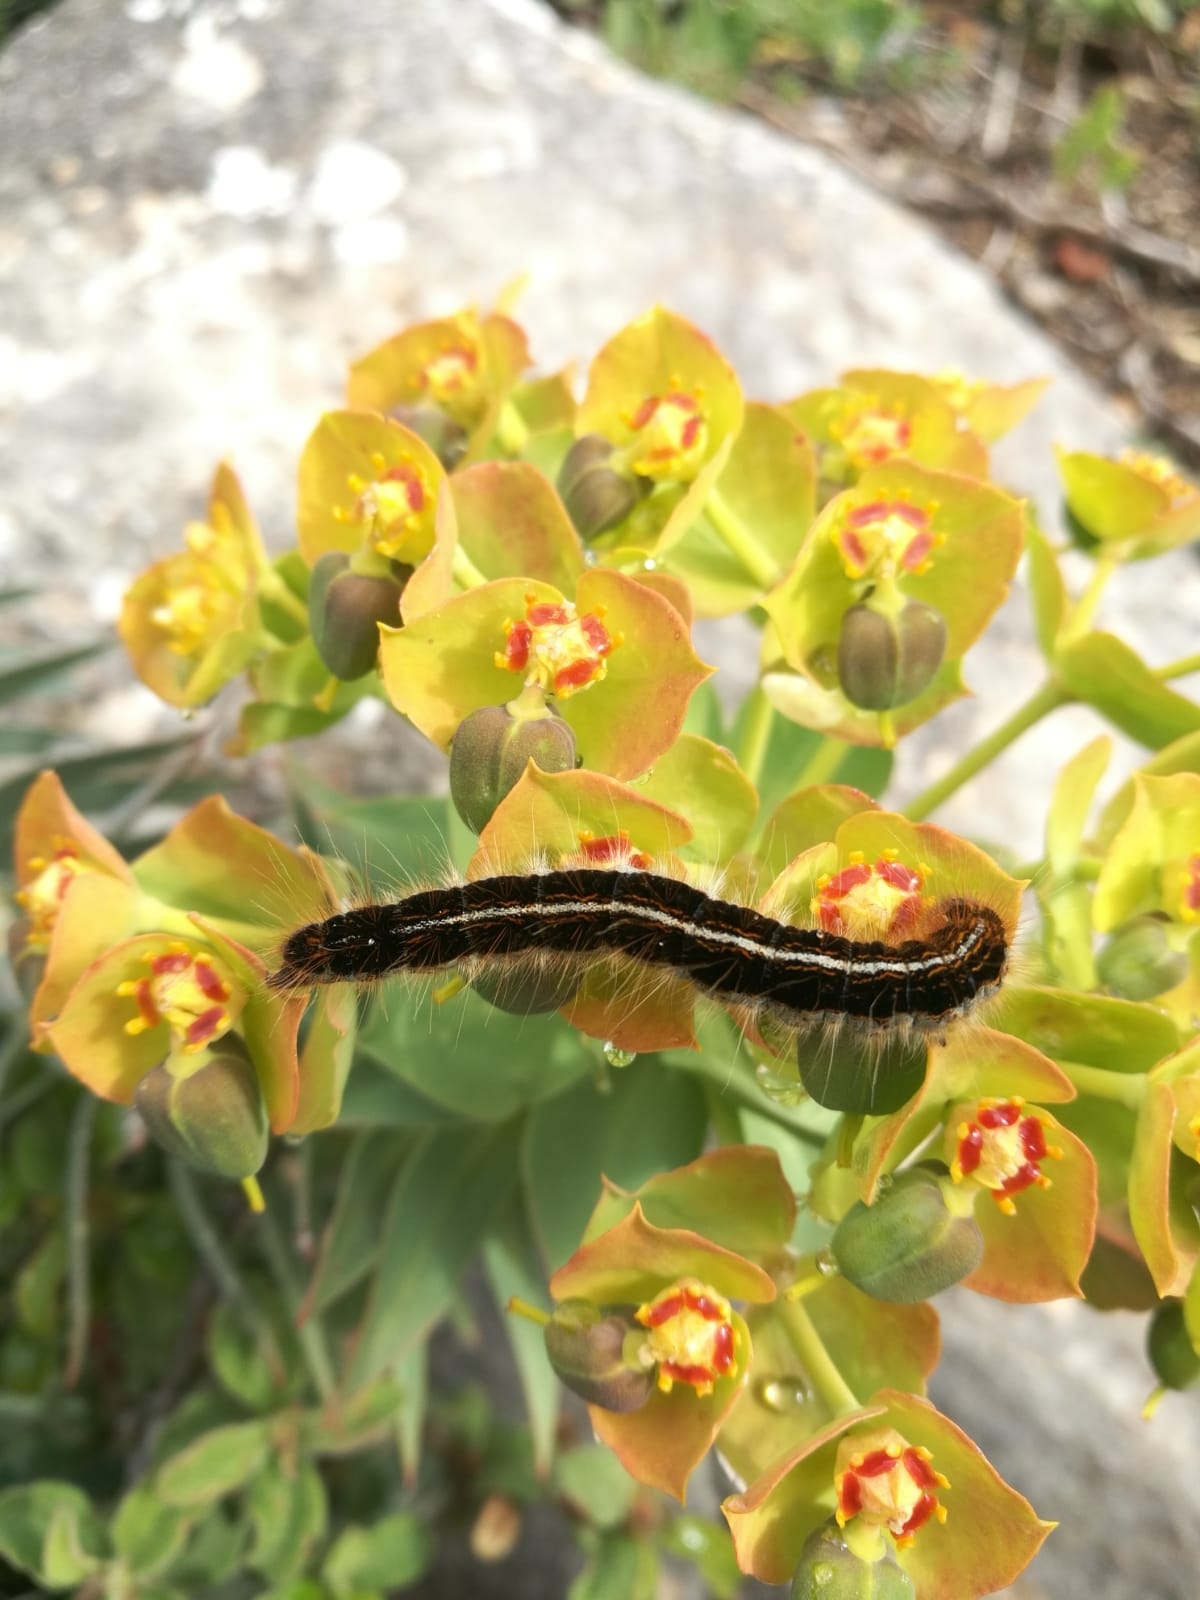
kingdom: Plantae
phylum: Tracheophyta
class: Magnoliopsida
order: Malpighiales
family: Euphorbiaceae
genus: Euphorbia
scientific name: Euphorbia rigida
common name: Upright myrtle spurge
